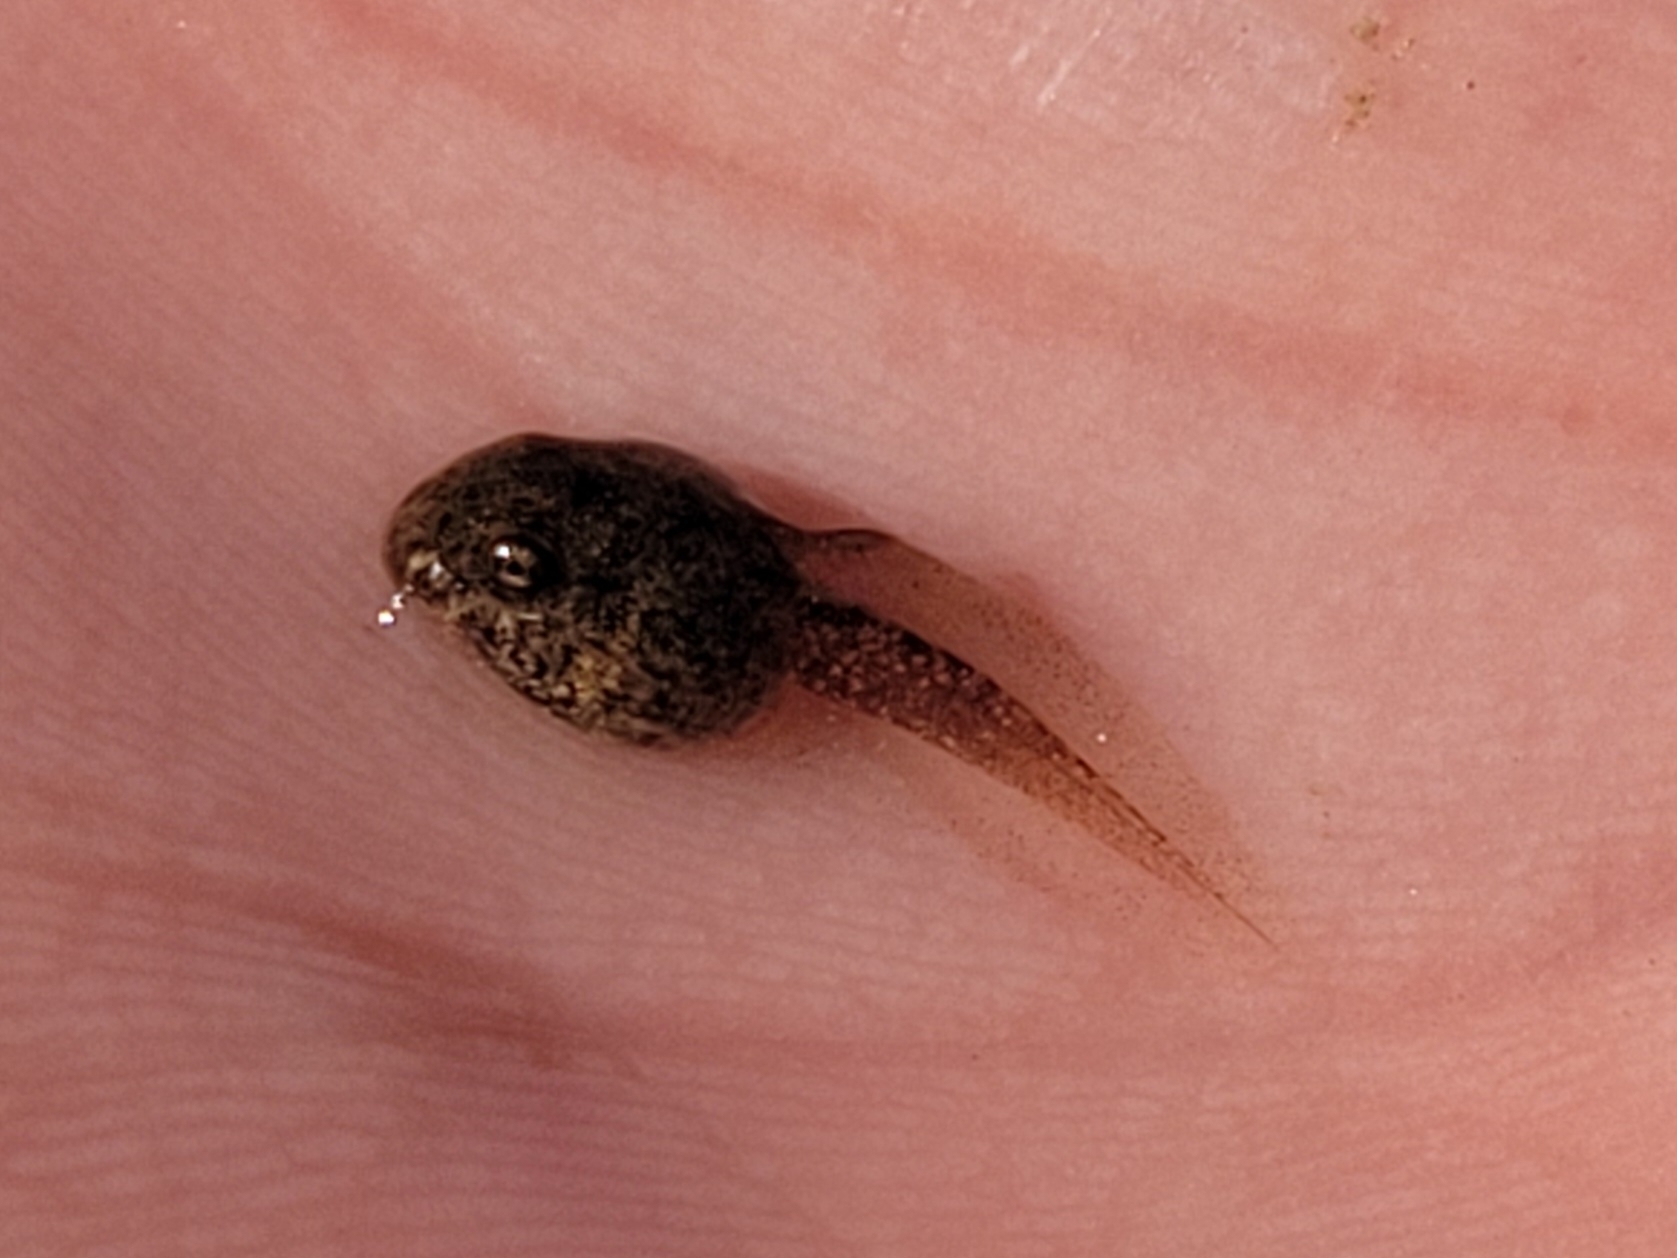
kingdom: Animalia
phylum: Chordata
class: Amphibia
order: Anura
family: Alytidae
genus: Alytes
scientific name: Alytes obstetricans
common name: Midwife toad
